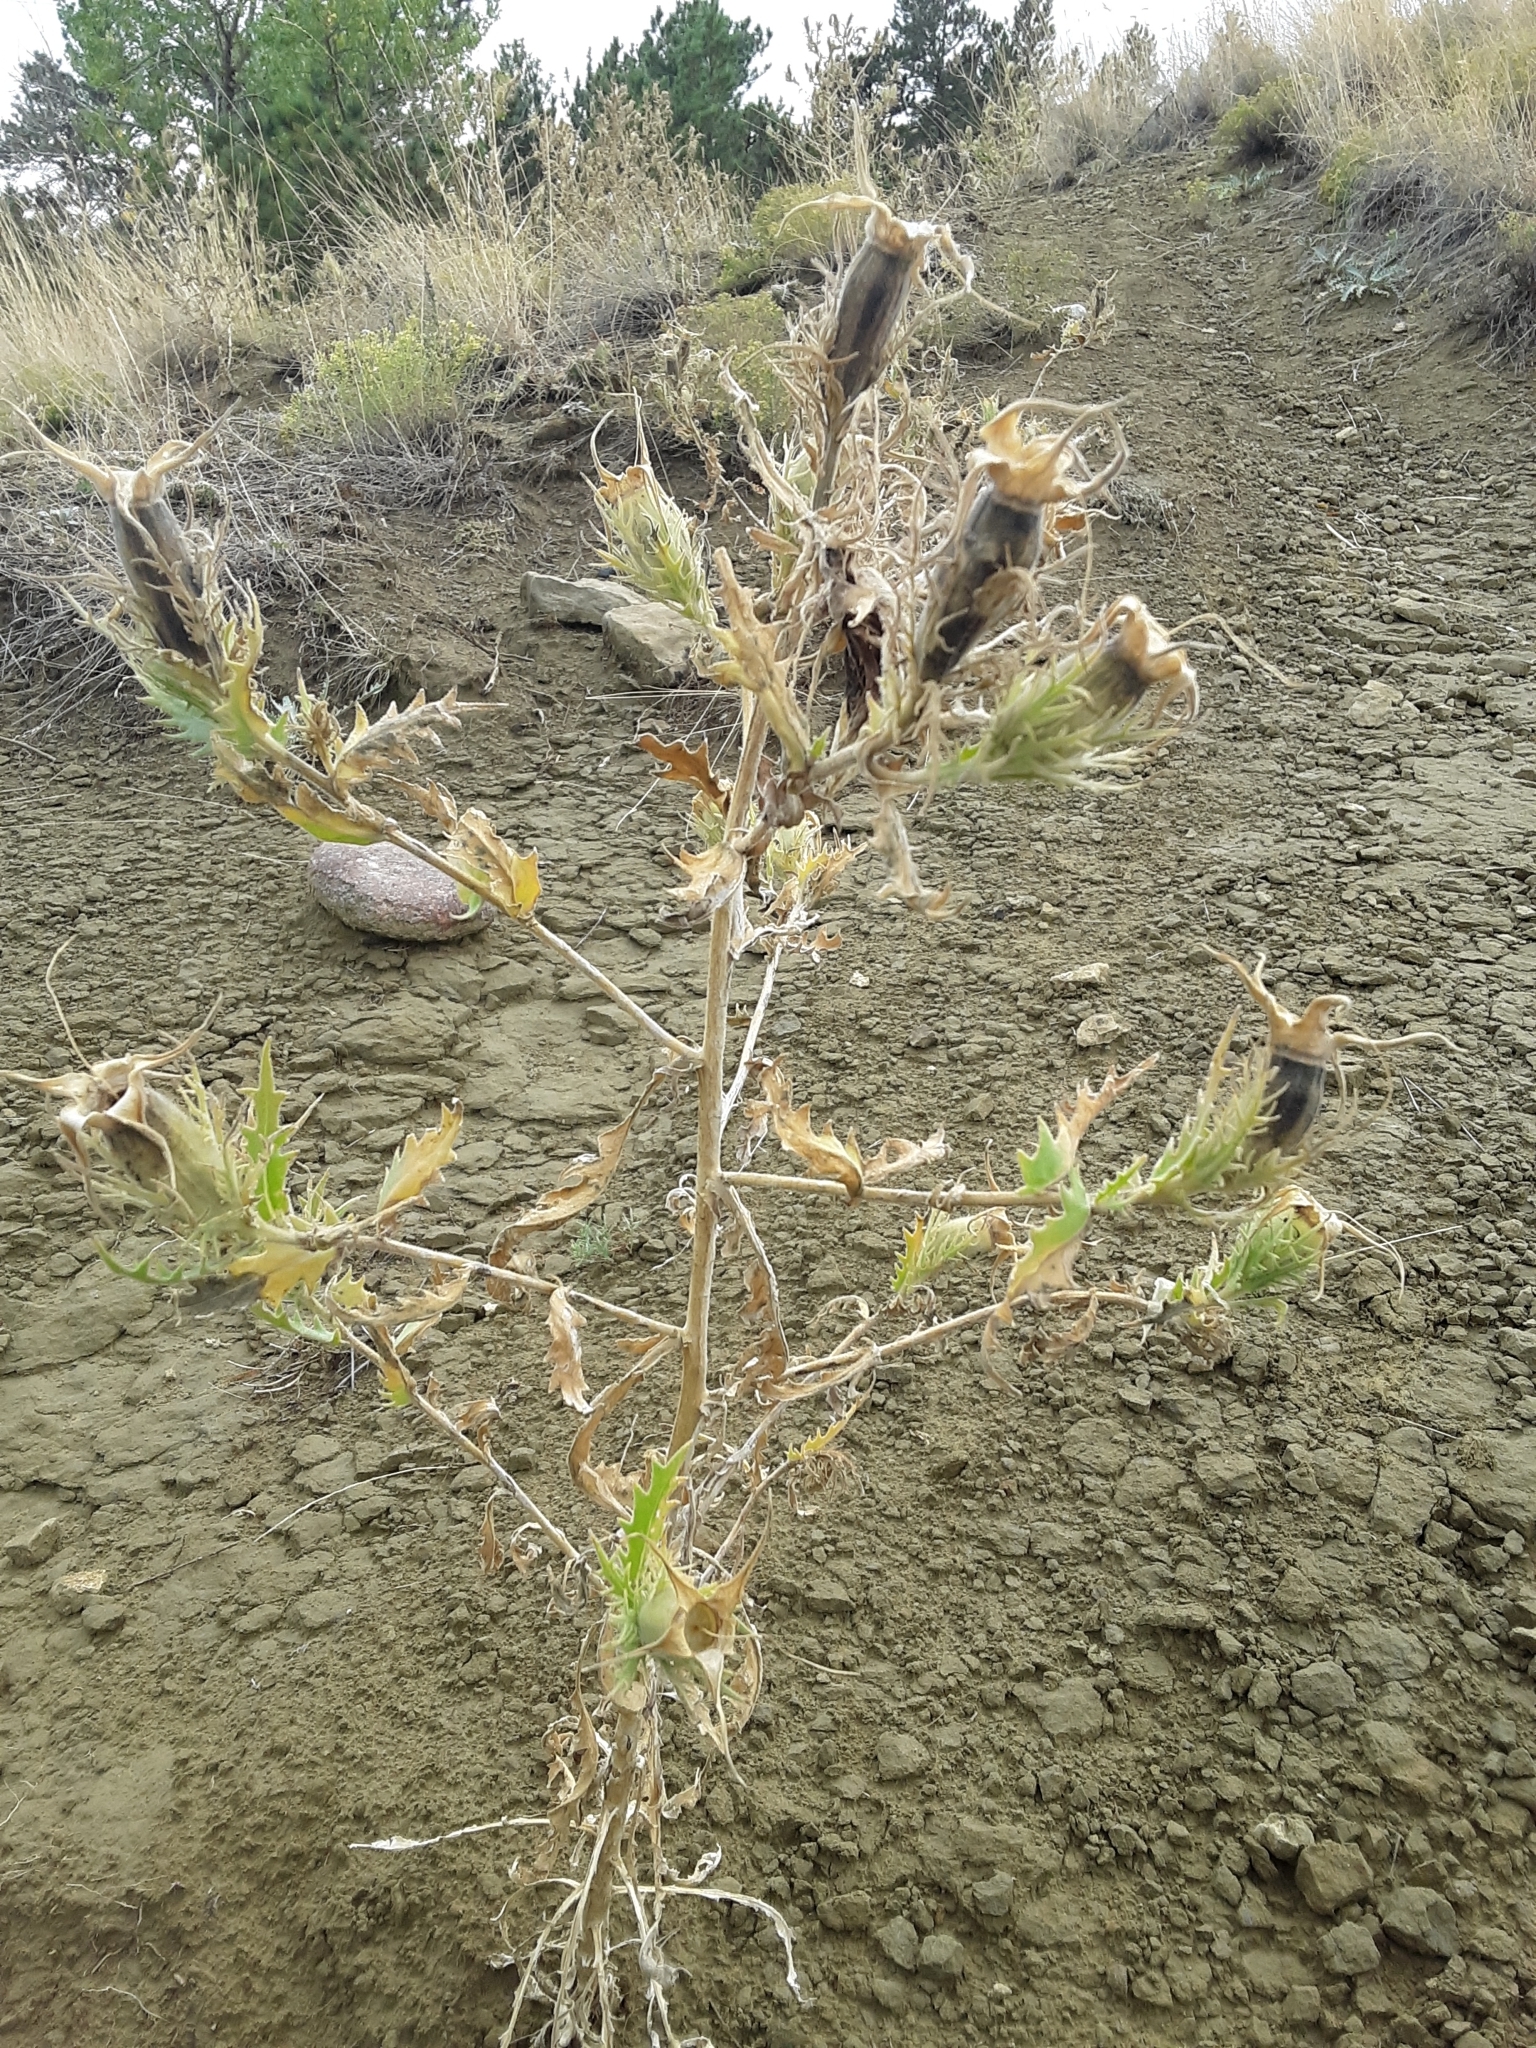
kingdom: Plantae
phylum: Tracheophyta
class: Magnoliopsida
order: Cornales
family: Loasaceae
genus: Mentzelia
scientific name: Mentzelia decapetala
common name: Gumbo-lily
